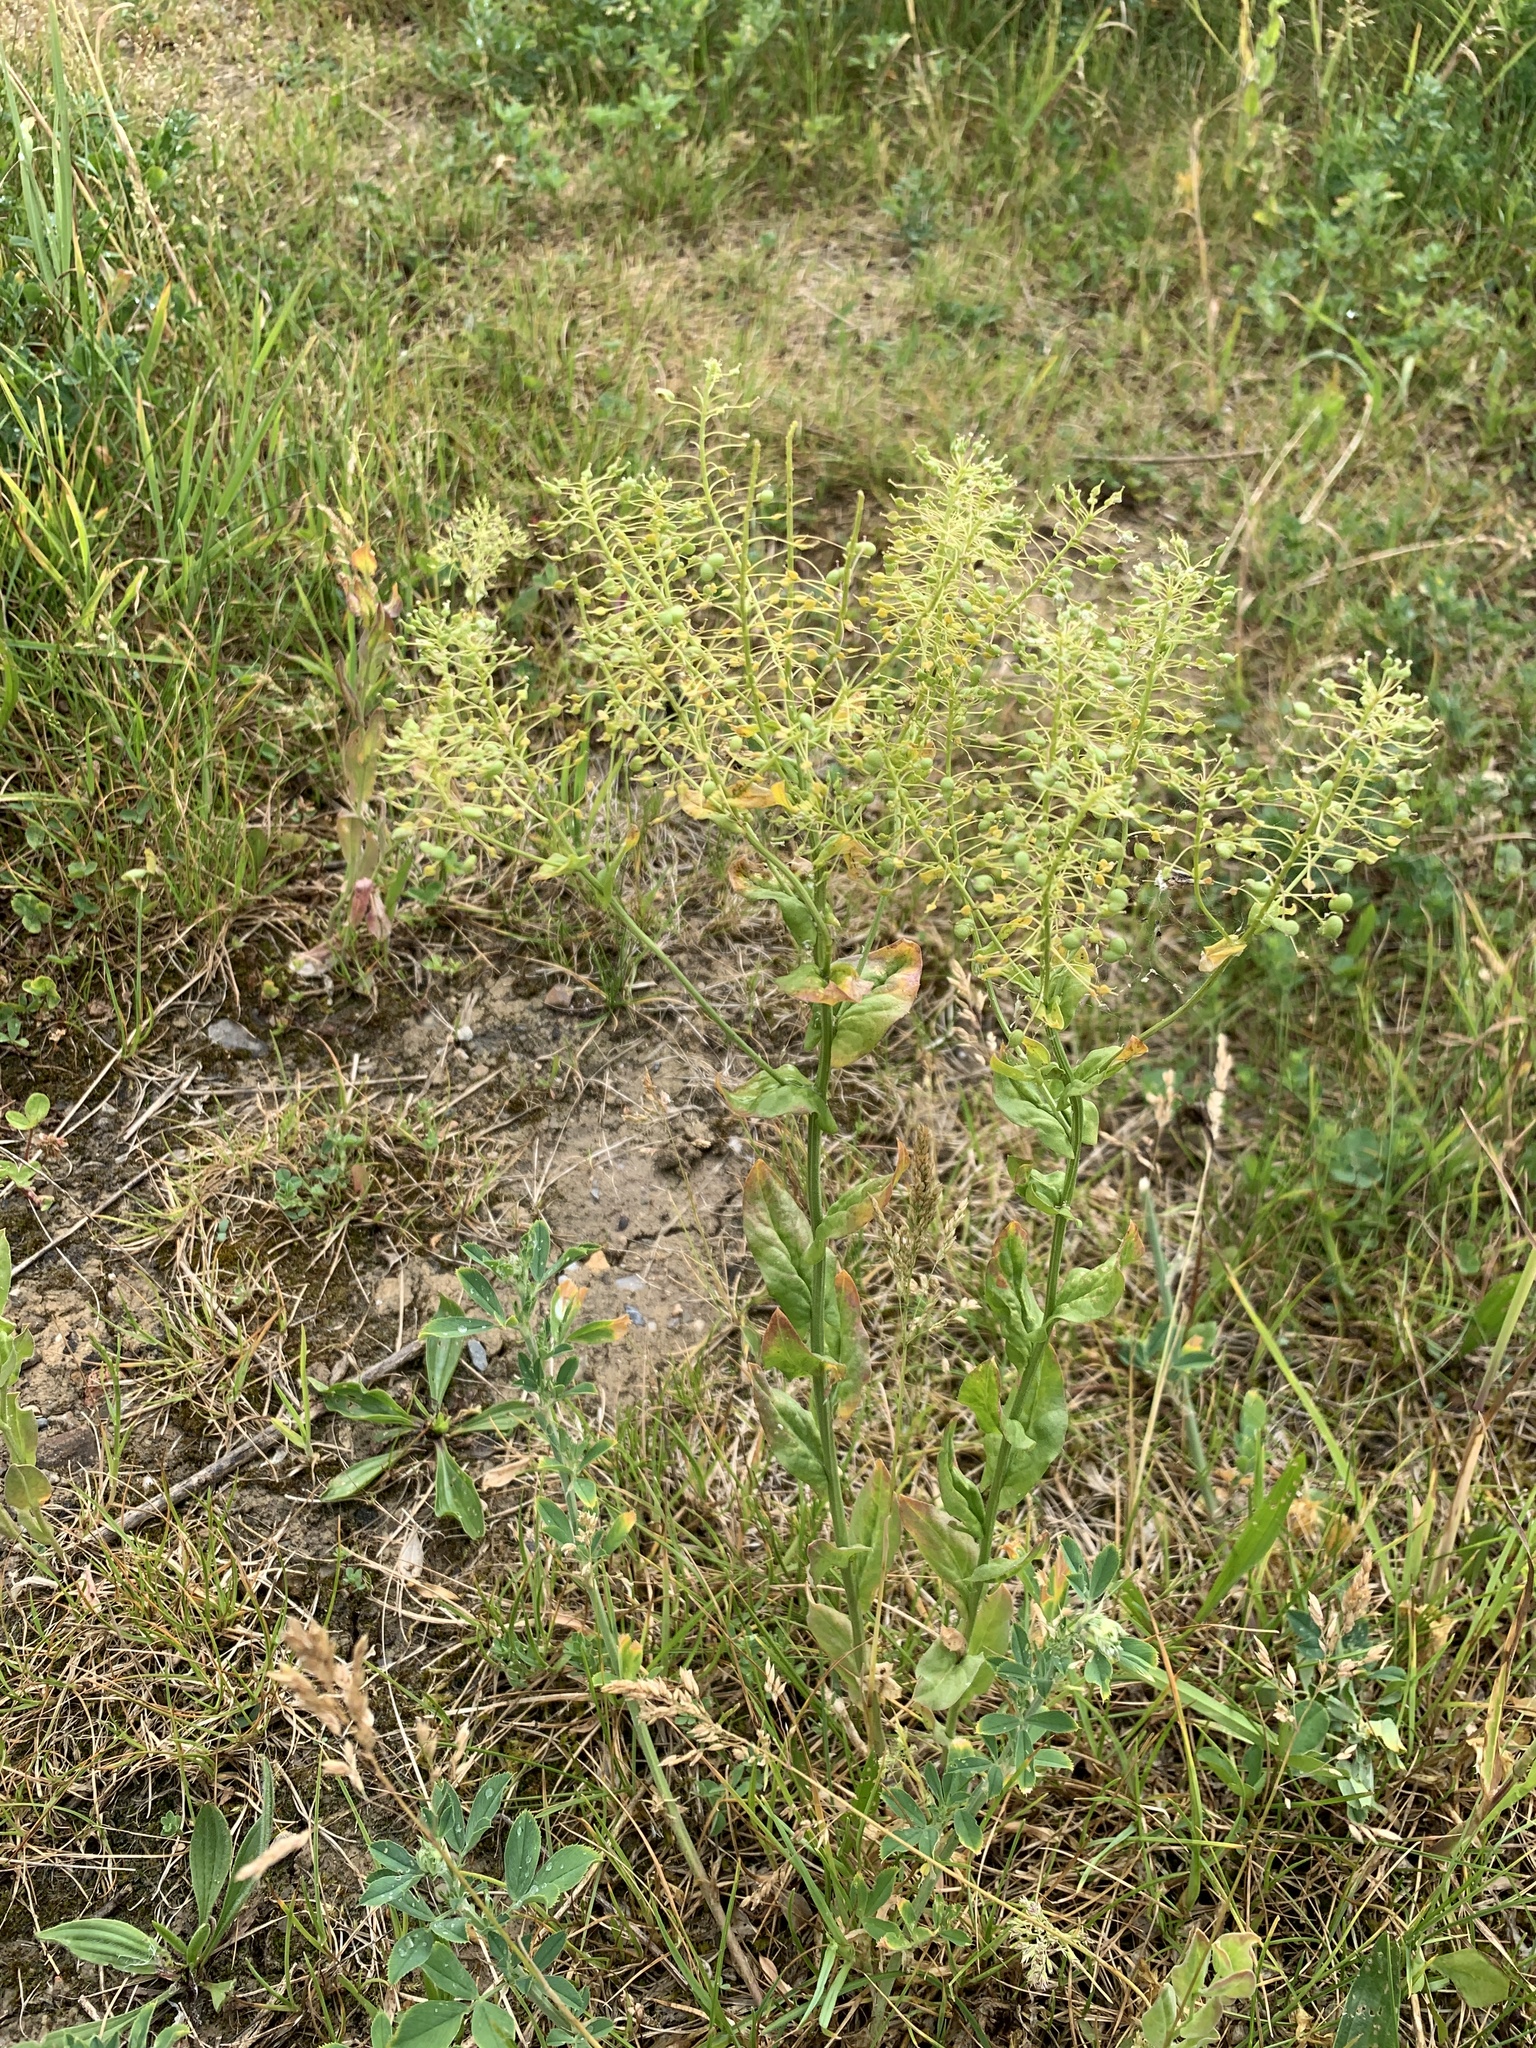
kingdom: Plantae
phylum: Tracheophyta
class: Magnoliopsida
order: Brassicales
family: Brassicaceae
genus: Lepidium
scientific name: Lepidium draba
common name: Hoary cress
